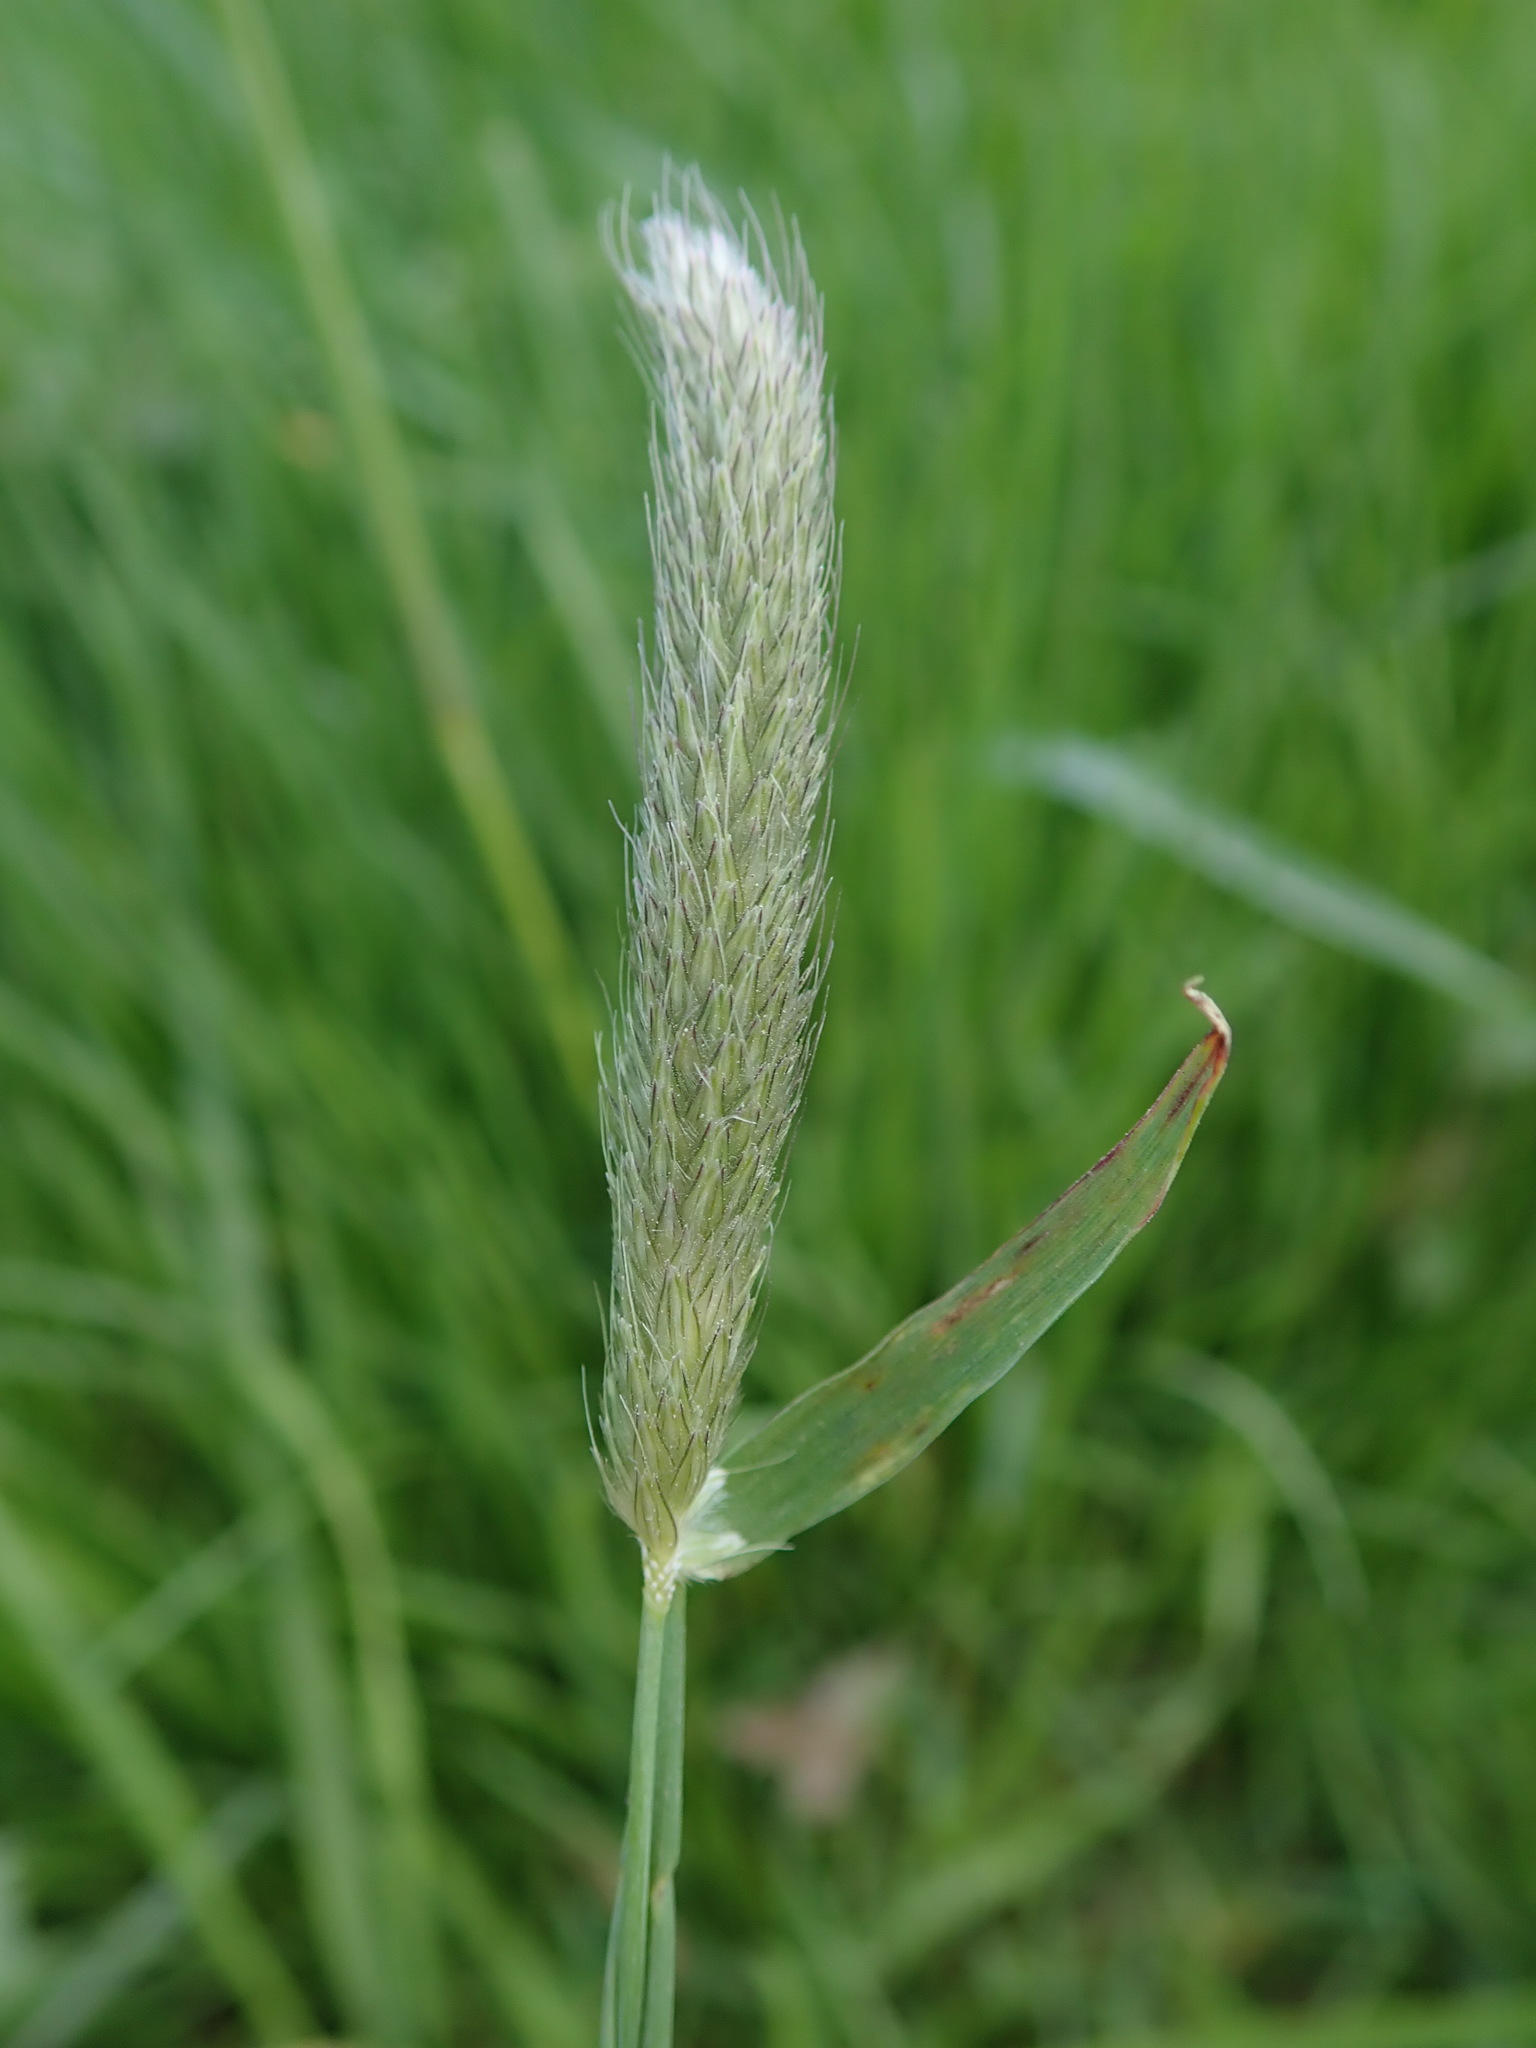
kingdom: Plantae
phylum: Tracheophyta
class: Liliopsida
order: Poales
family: Poaceae
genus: Alopecurus
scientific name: Alopecurus pratensis
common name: Meadow foxtail
